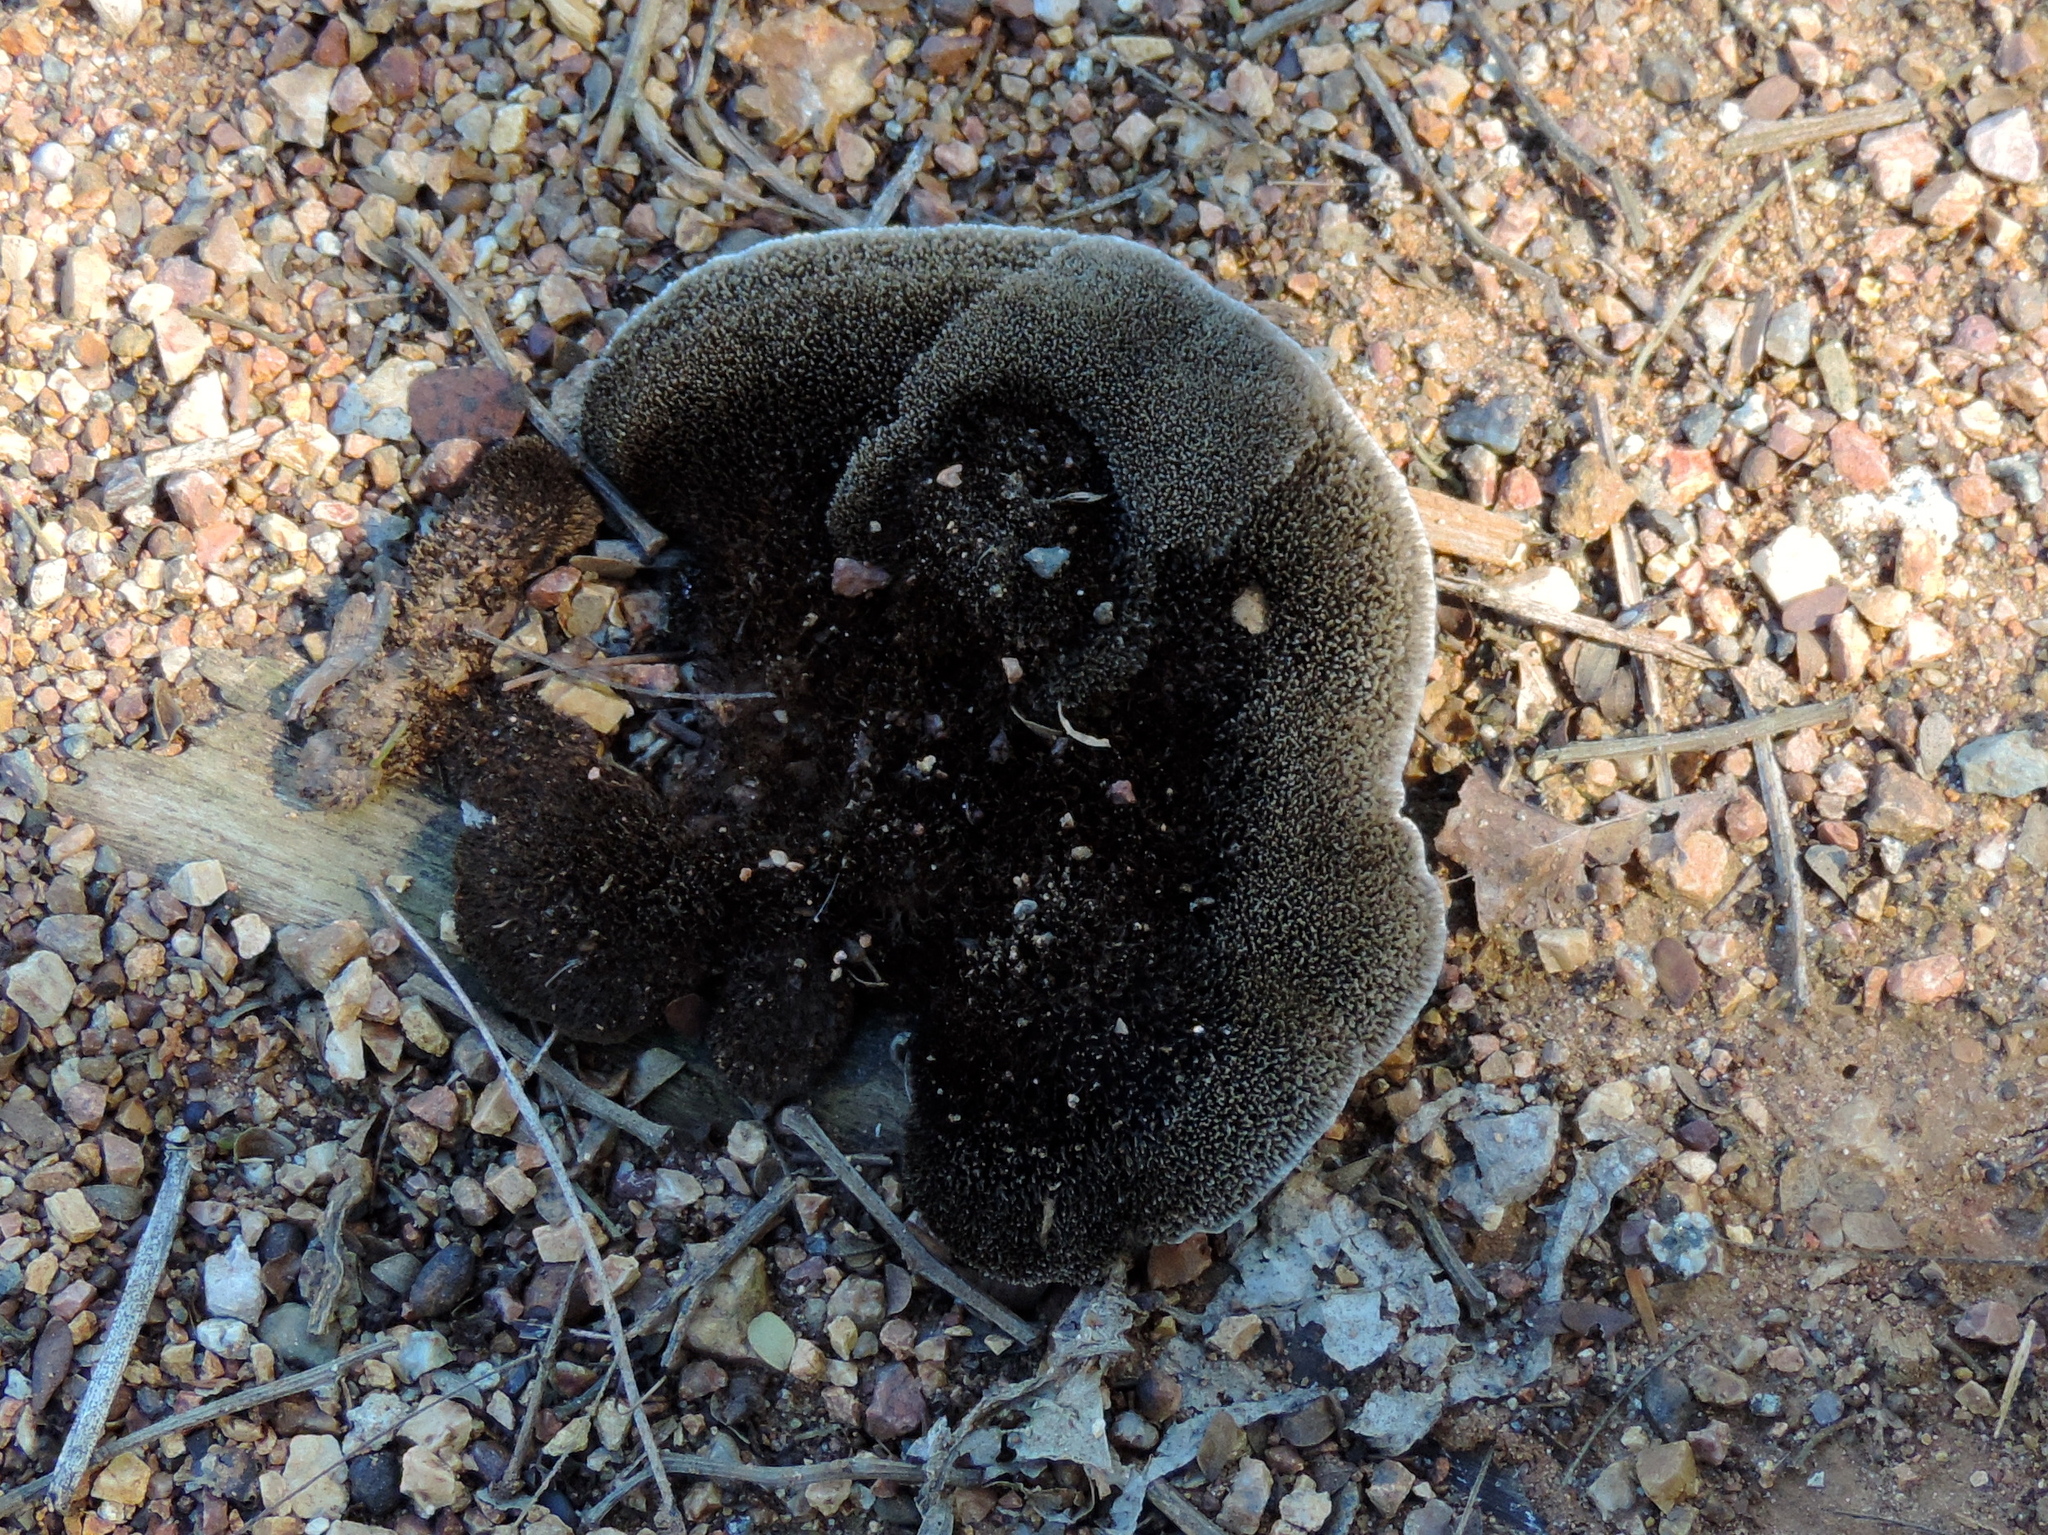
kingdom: Fungi
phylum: Basidiomycota
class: Agaricomycetes
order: Polyporales
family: Cerrenaceae
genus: Cerrena
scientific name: Cerrena hydnoides
